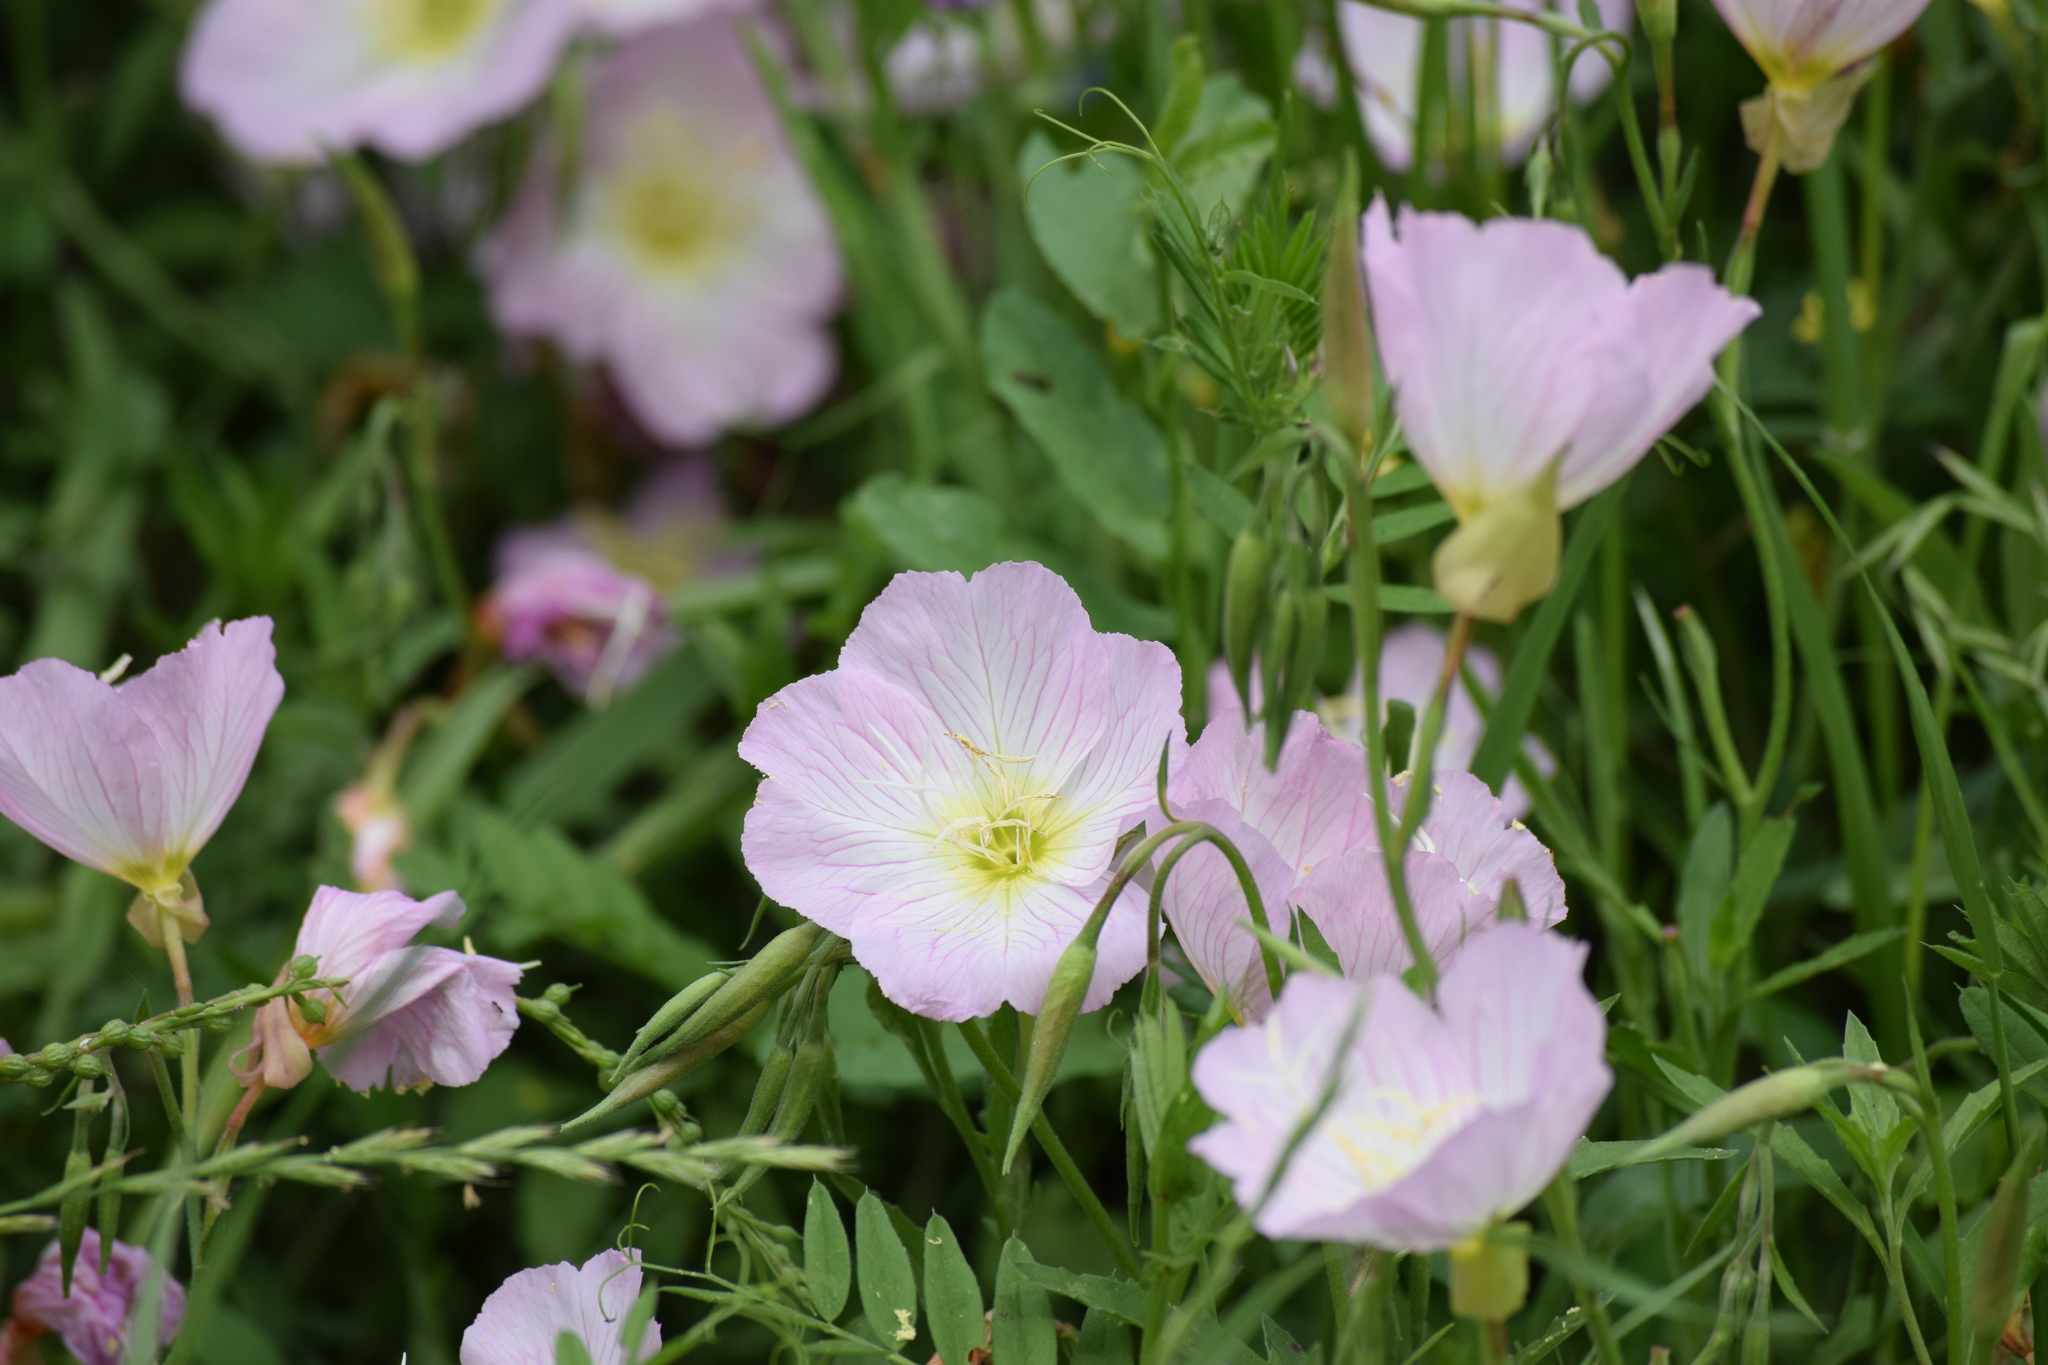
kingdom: Plantae
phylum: Tracheophyta
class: Magnoliopsida
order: Myrtales
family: Onagraceae
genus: Oenothera
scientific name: Oenothera speciosa
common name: White evening-primrose
